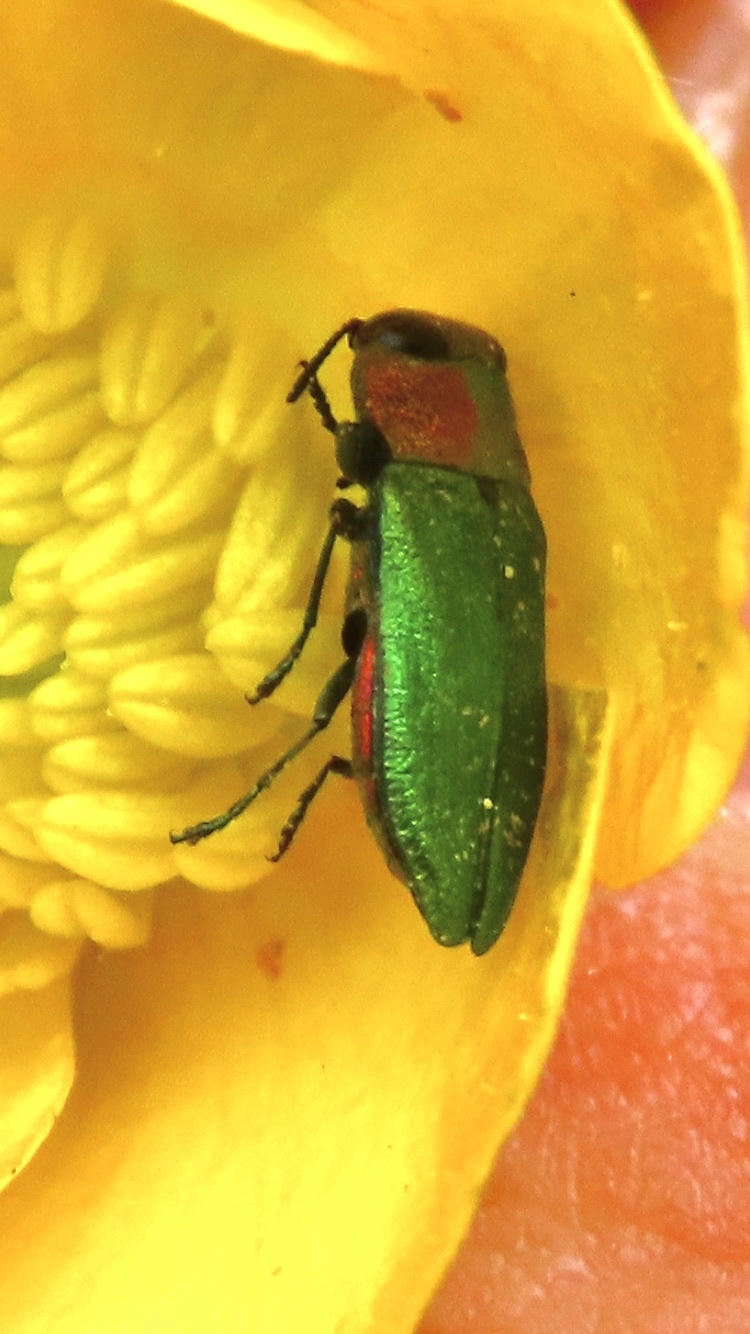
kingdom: Animalia
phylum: Arthropoda
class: Insecta
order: Coleoptera
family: Buprestidae
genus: Anthaxia
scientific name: Anthaxia nitidula
